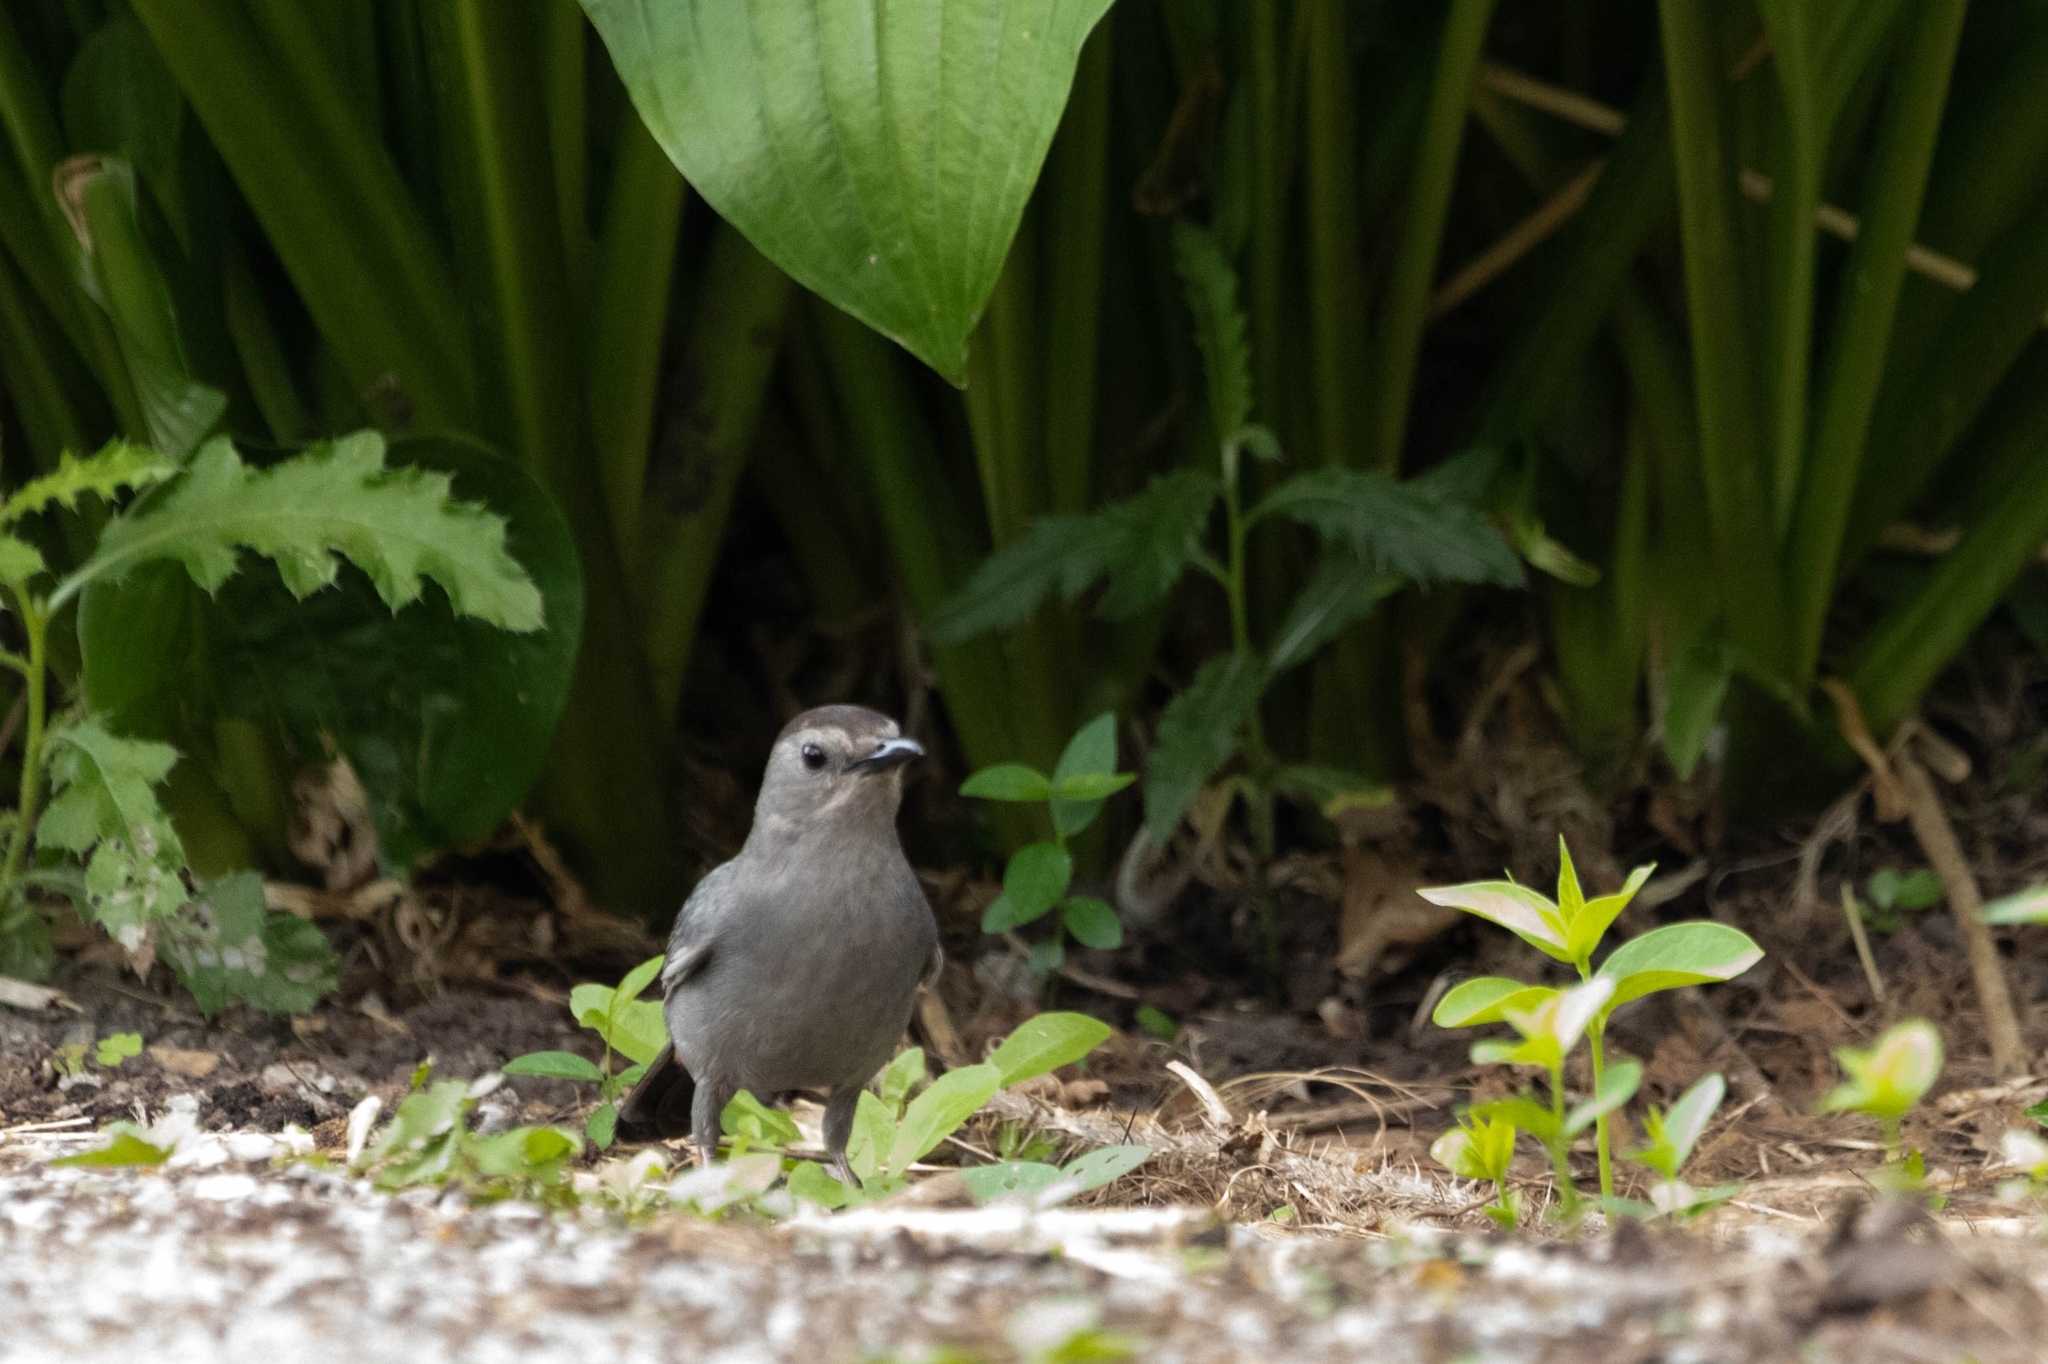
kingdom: Animalia
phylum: Chordata
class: Aves
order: Passeriformes
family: Mimidae
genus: Dumetella
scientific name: Dumetella carolinensis
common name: Gray catbird
